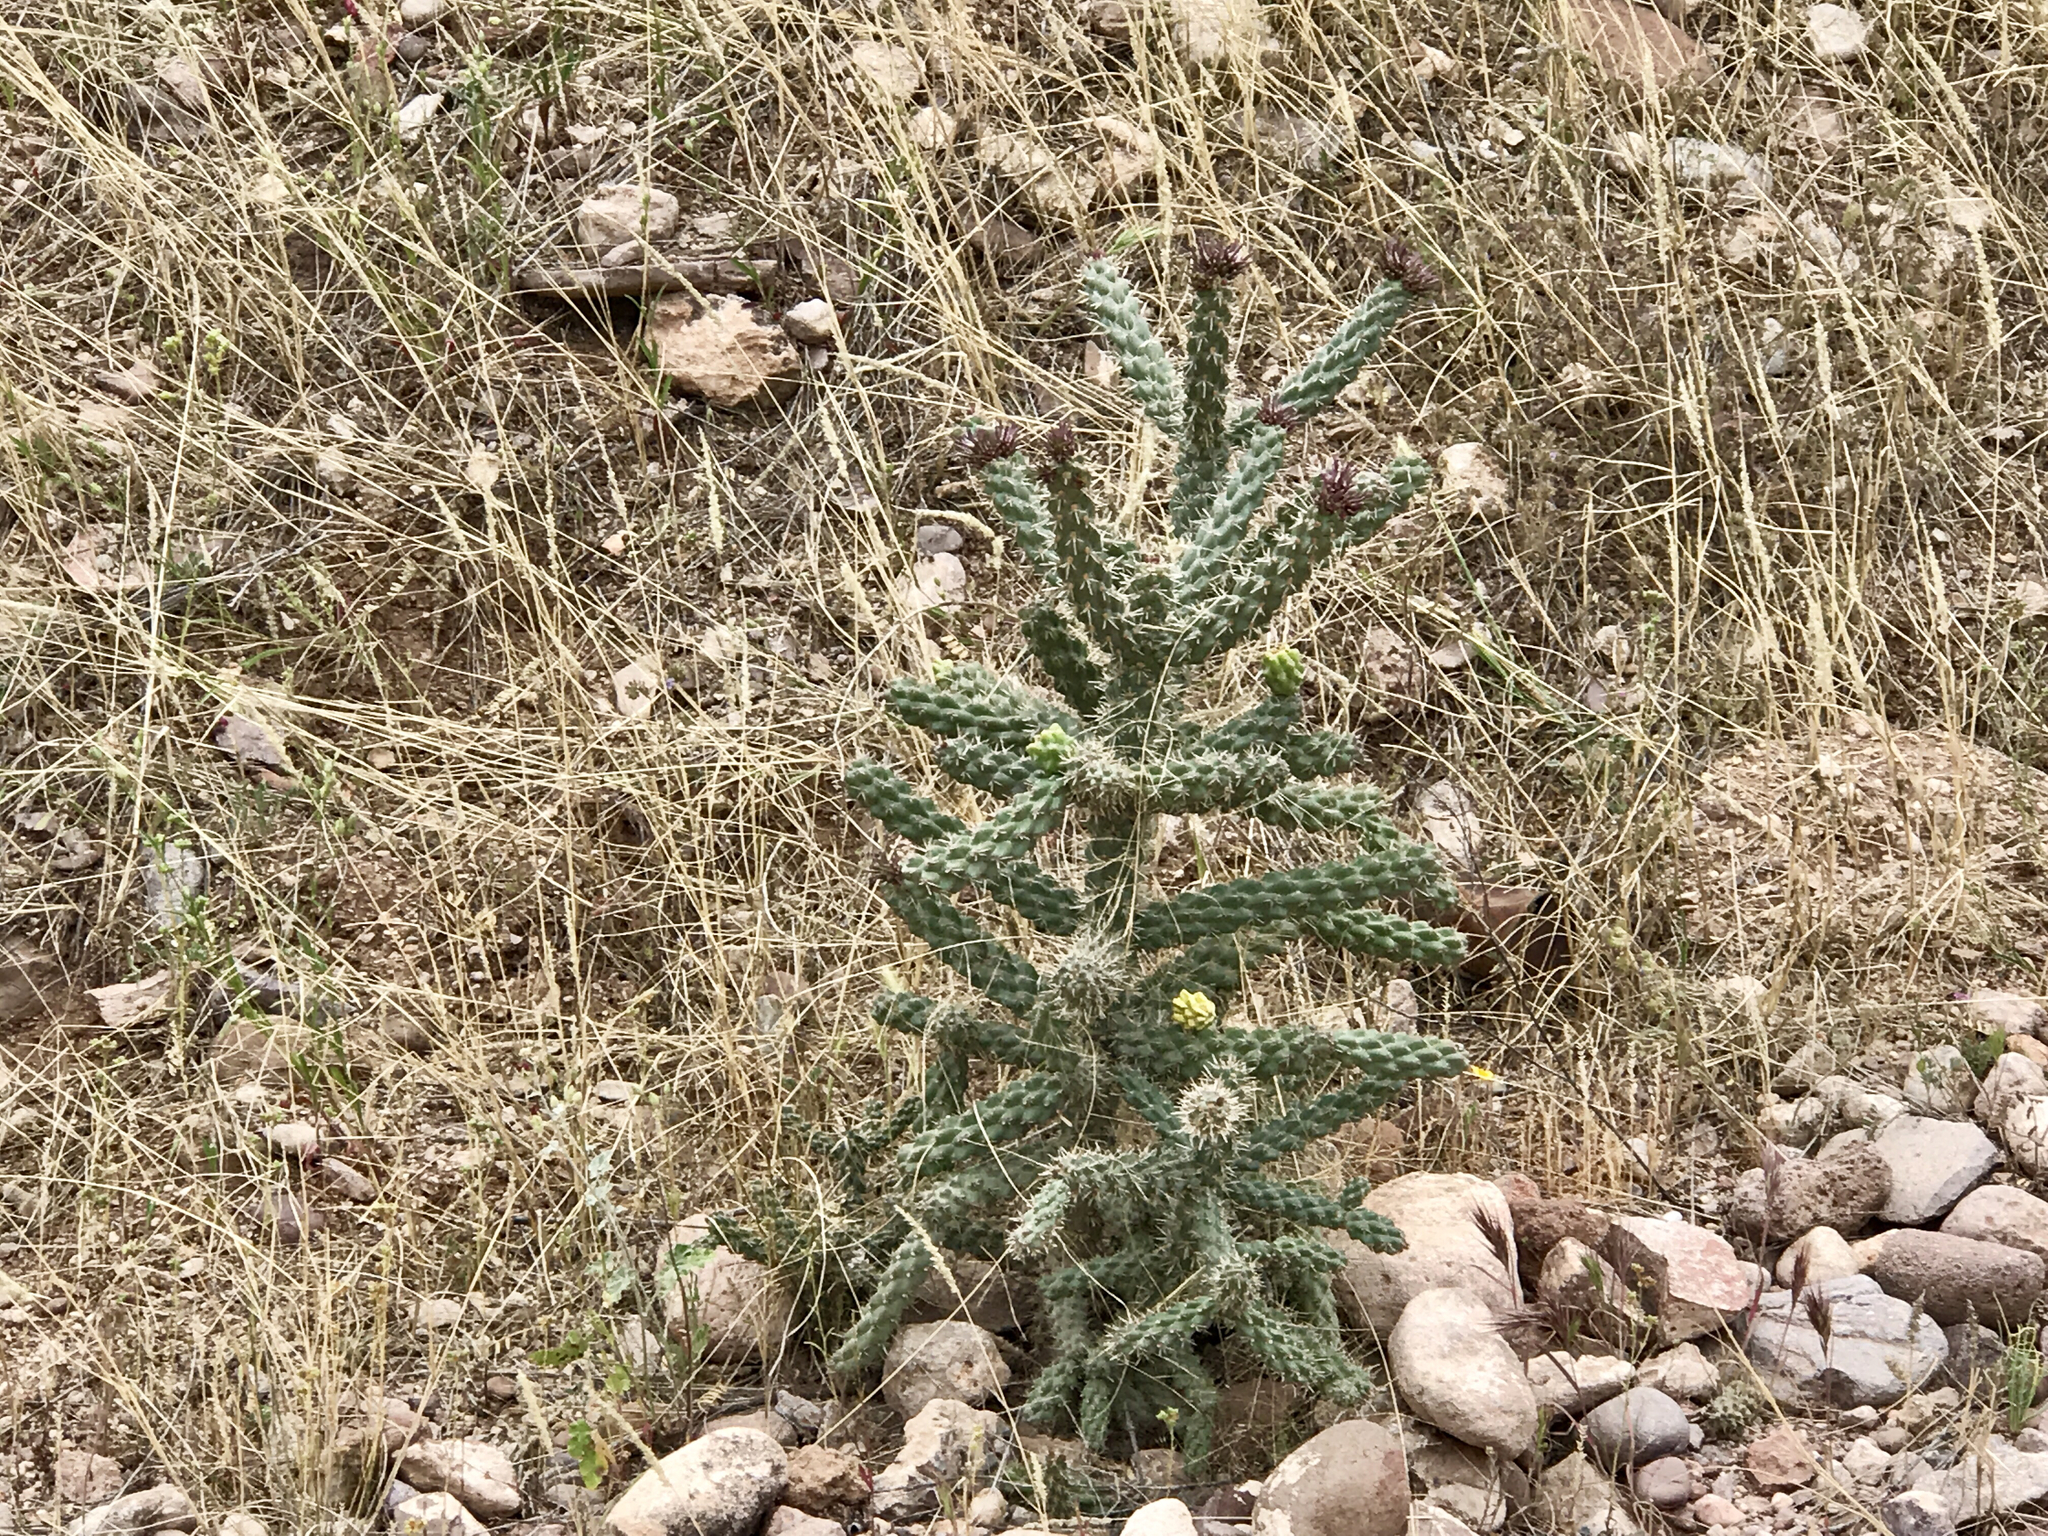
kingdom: Plantae
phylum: Tracheophyta
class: Magnoliopsida
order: Caryophyllales
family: Cactaceae
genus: Cylindropuntia
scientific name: Cylindropuntia imbricata
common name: Candelabrum cactus
